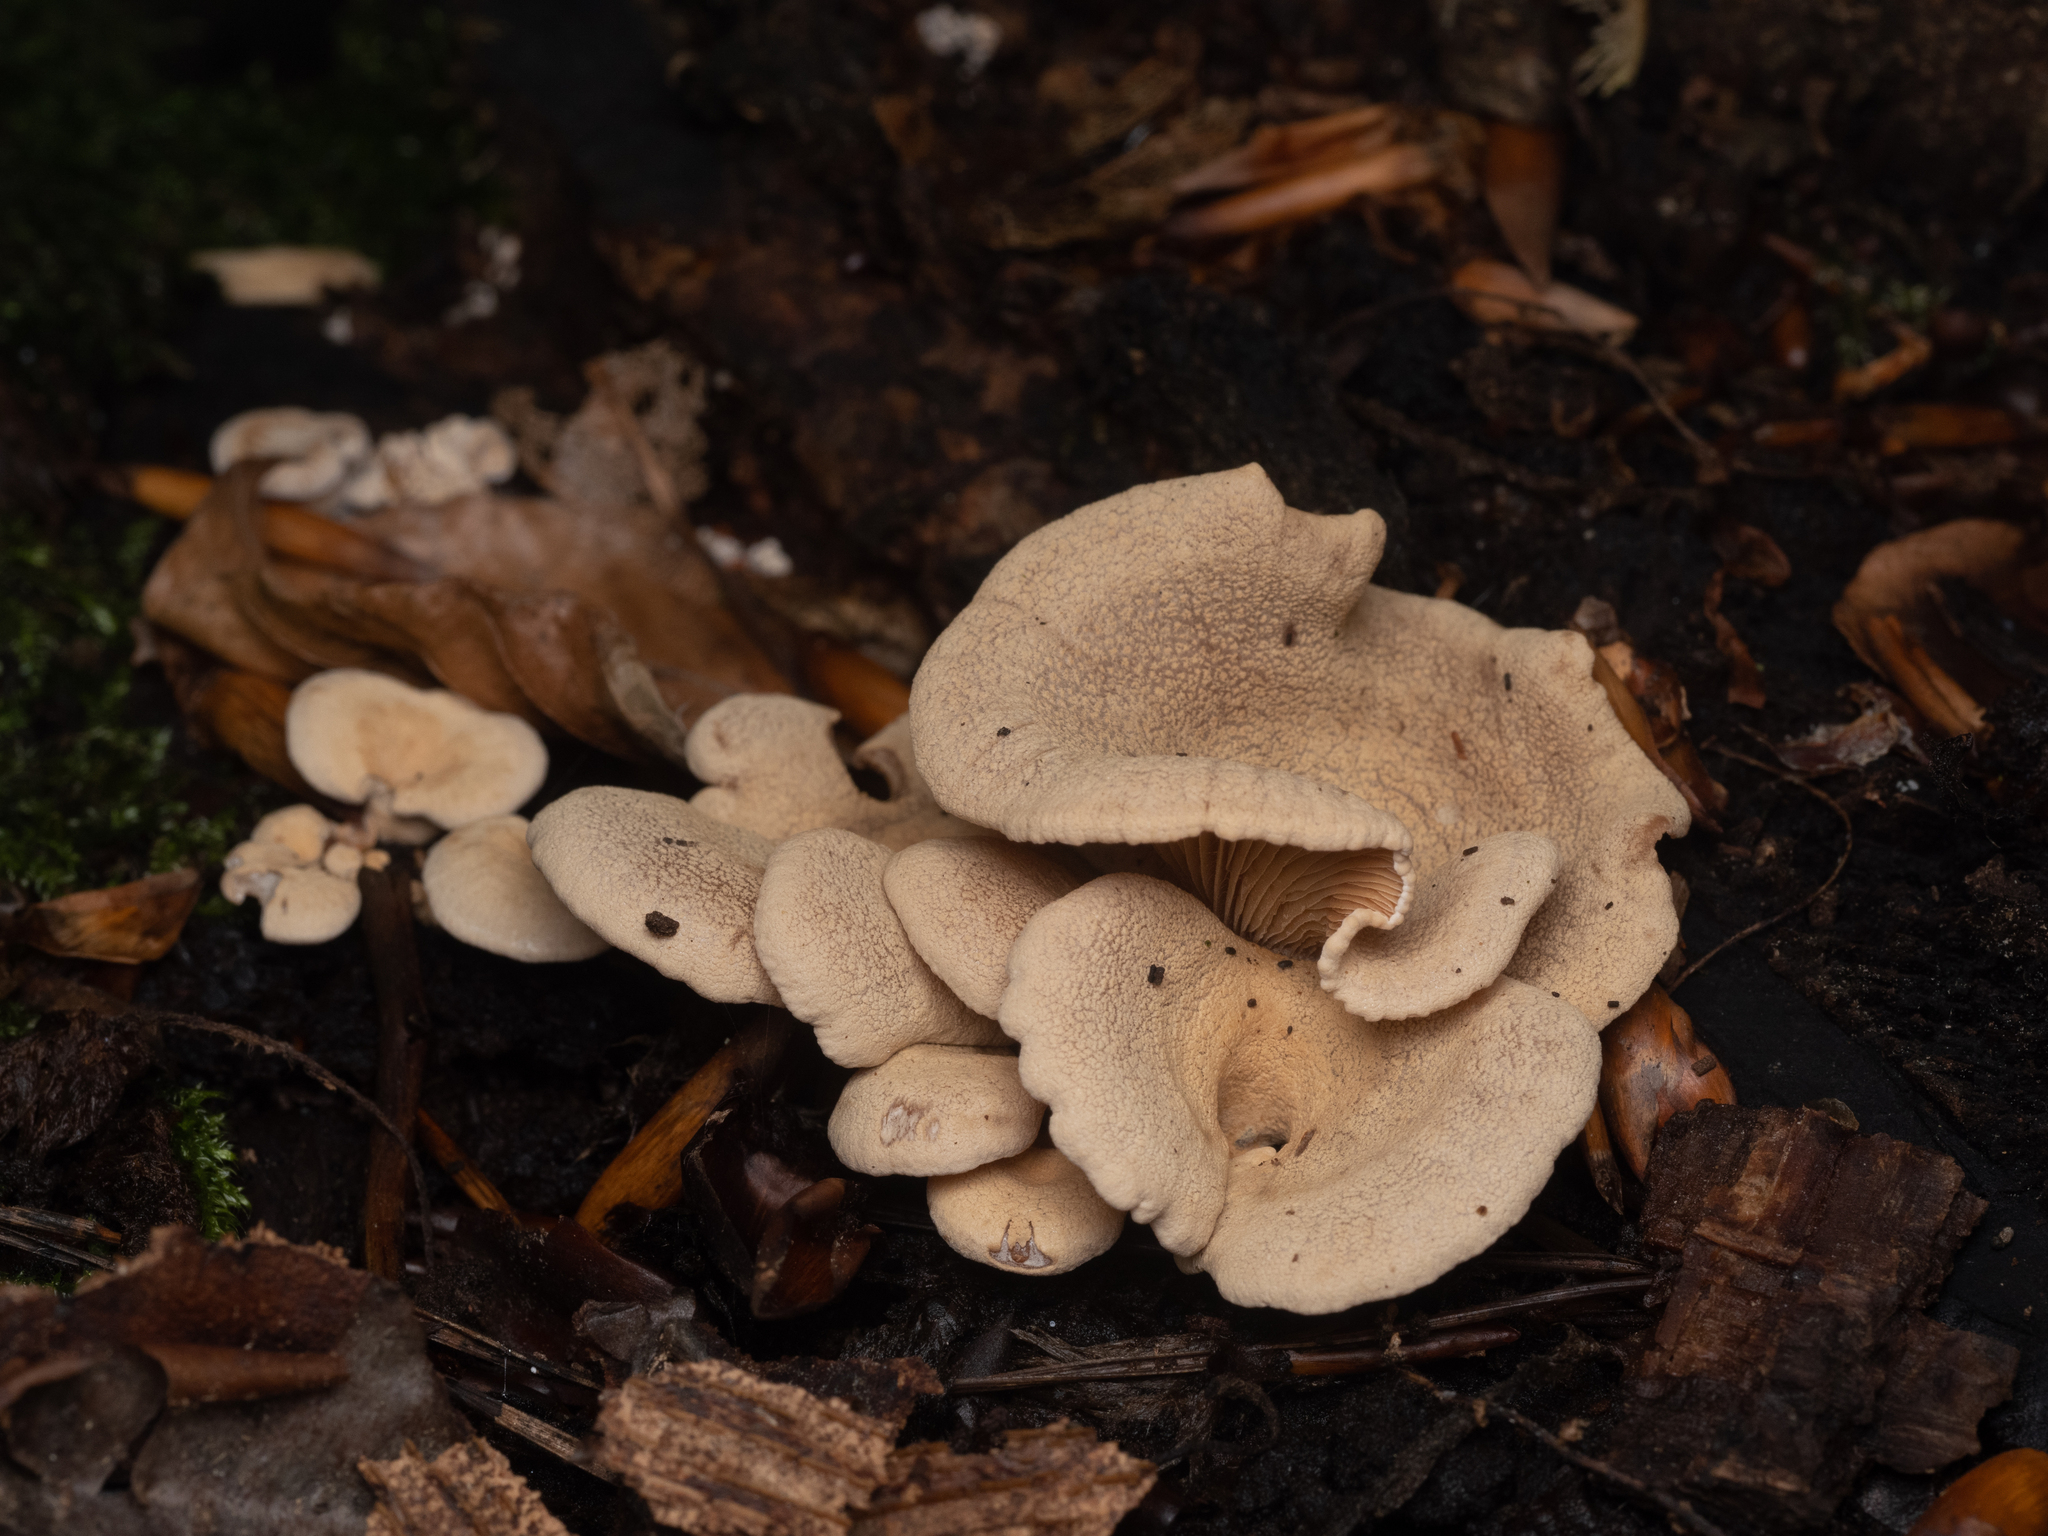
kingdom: Fungi
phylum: Basidiomycota
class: Agaricomycetes
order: Agaricales
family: Mycenaceae
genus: Panellus
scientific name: Panellus stipticus
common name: Bitter oysterling
